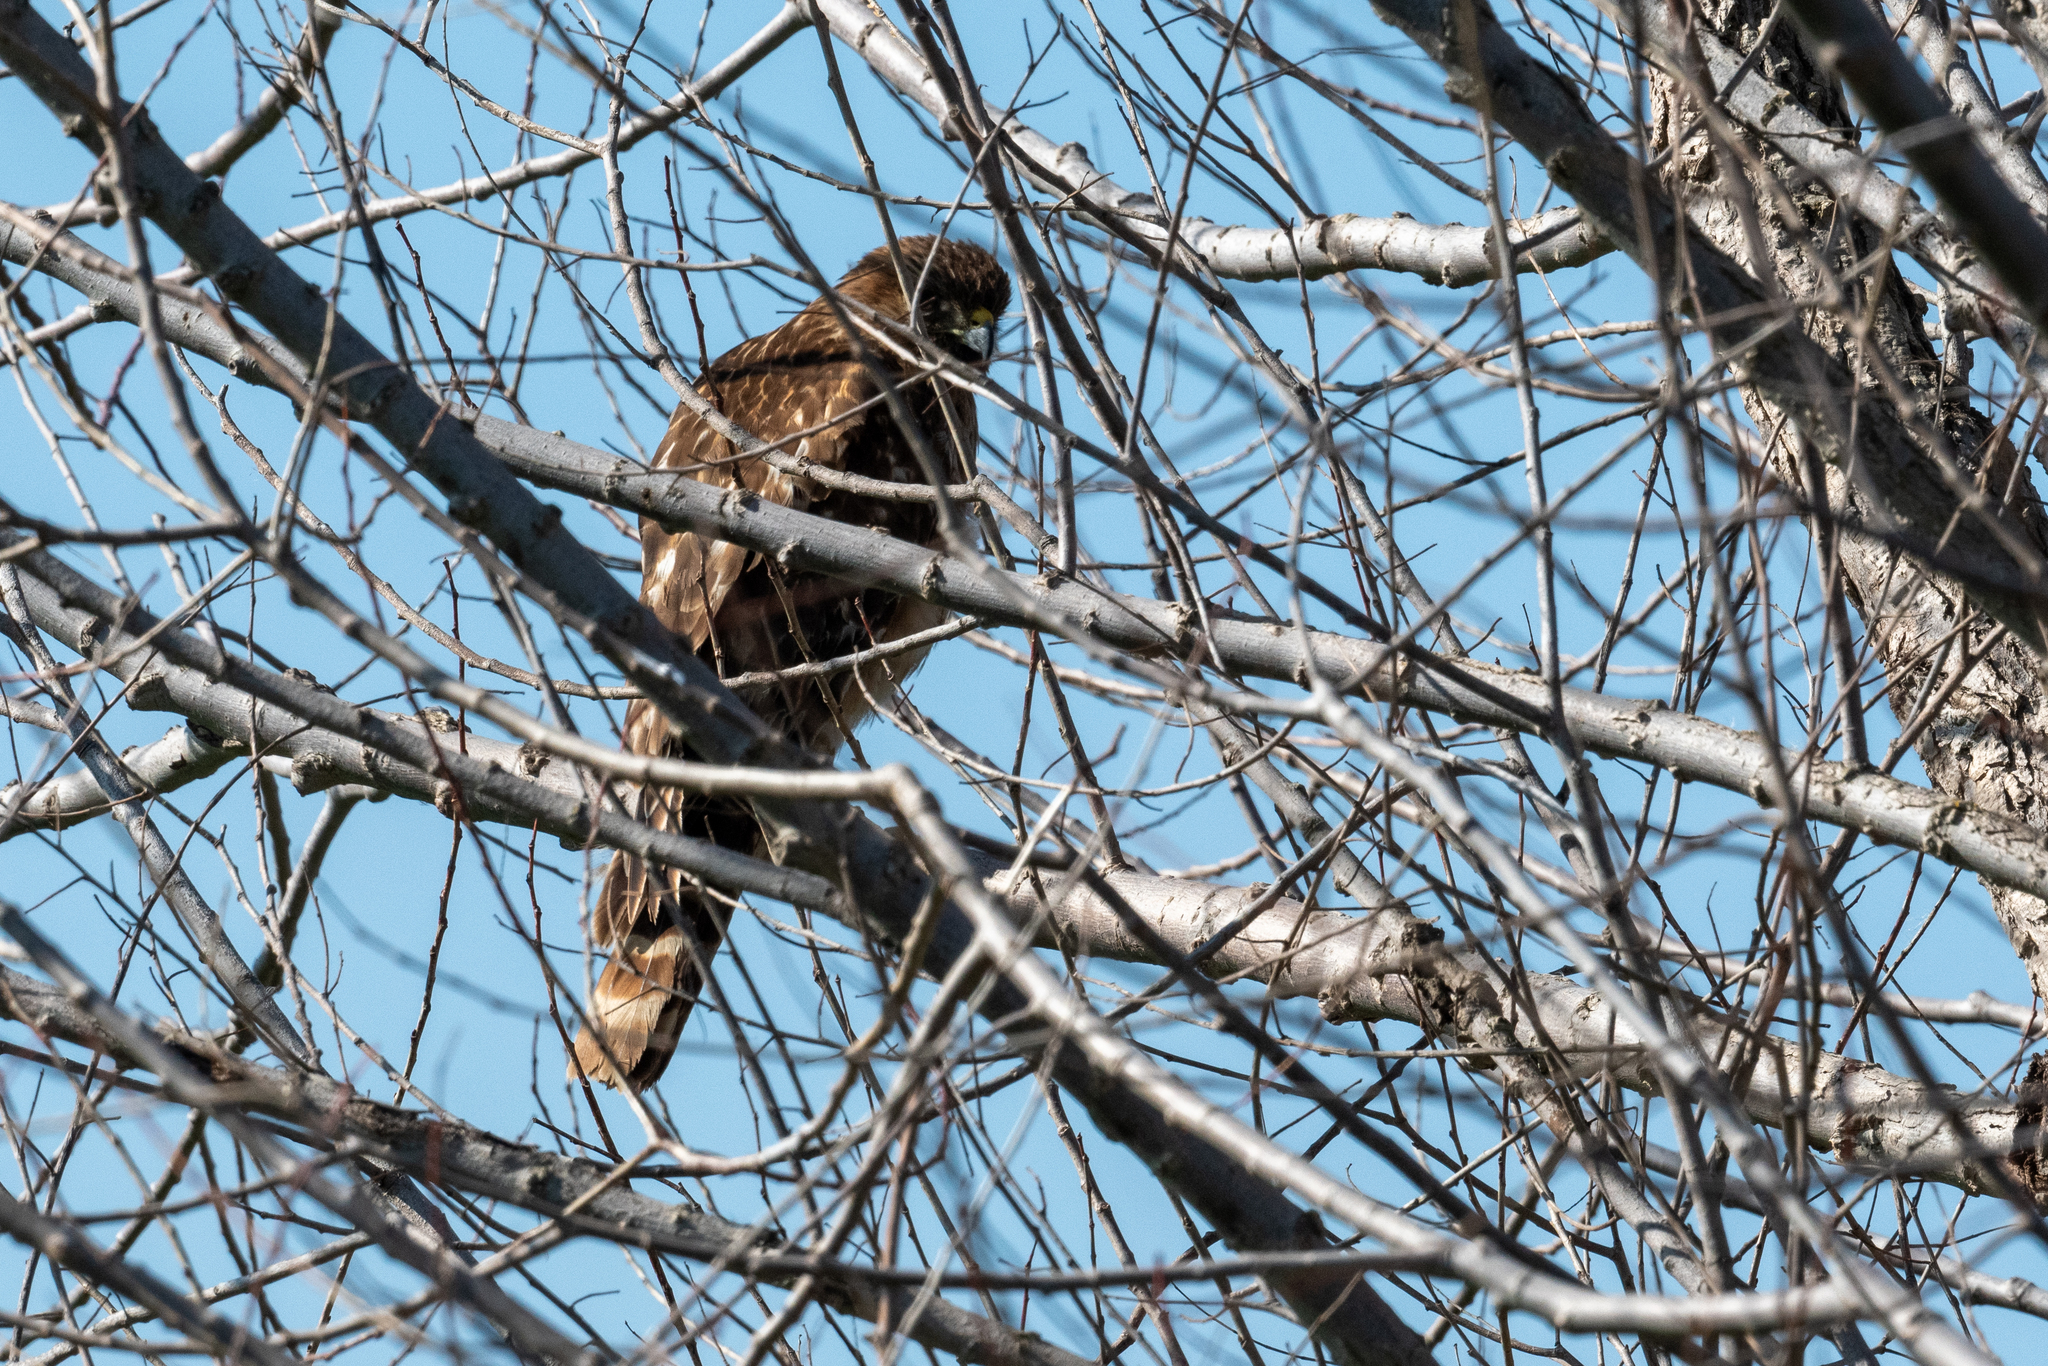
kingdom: Animalia
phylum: Chordata
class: Aves
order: Accipitriformes
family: Accipitridae
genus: Buteo
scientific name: Buteo lineatus
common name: Red-shouldered hawk
